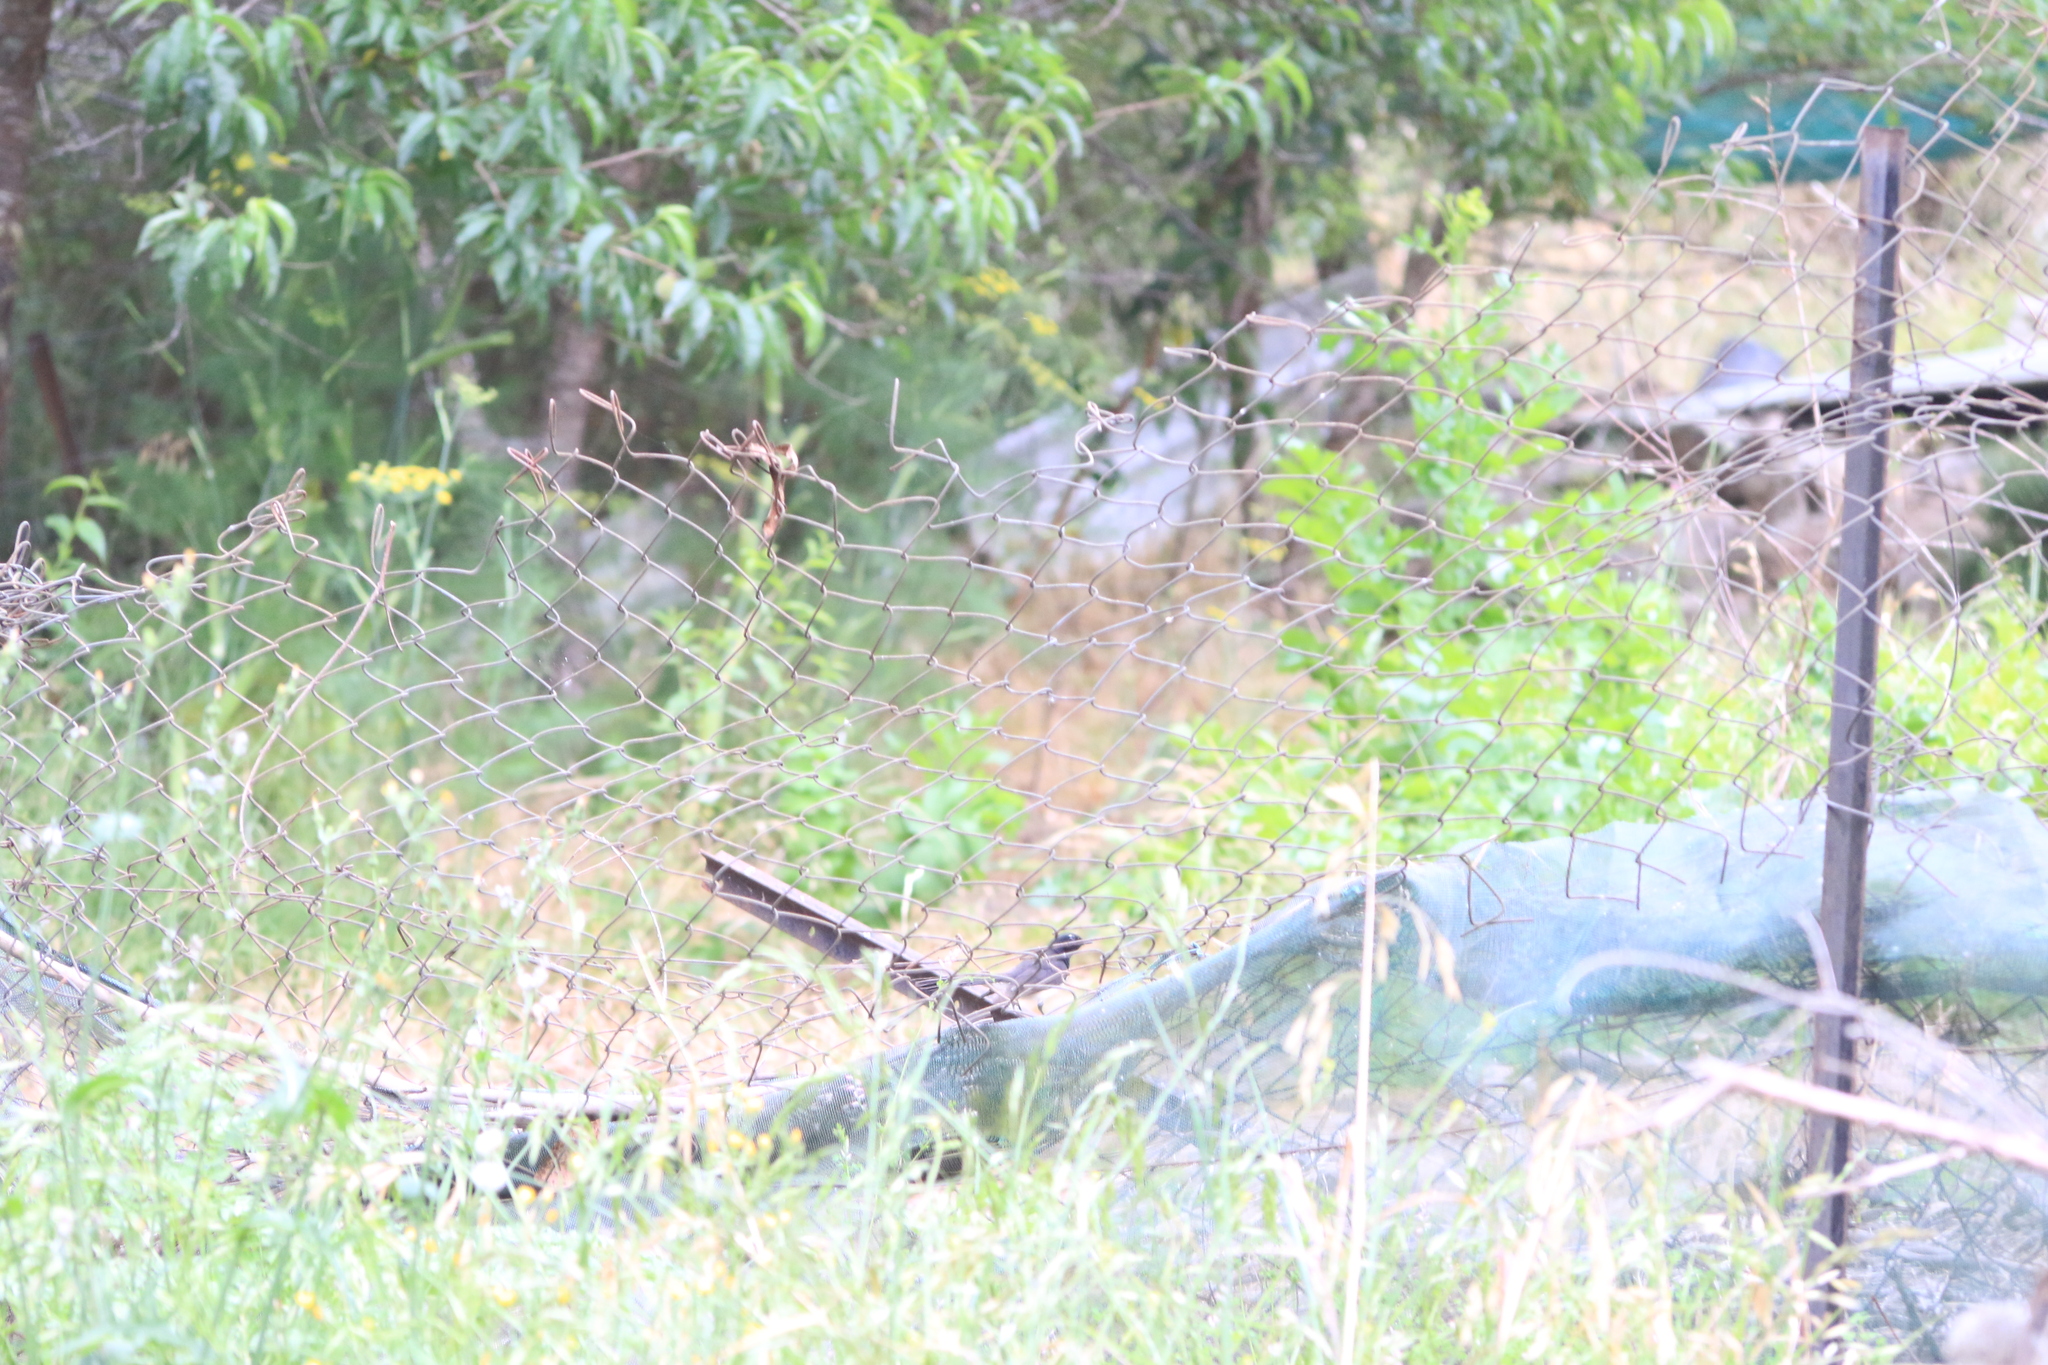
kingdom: Animalia
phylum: Chordata
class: Aves
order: Passeriformes
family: Rhipiduridae
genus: Rhipidura
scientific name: Rhipidura leucophrys
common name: Willie wagtail
